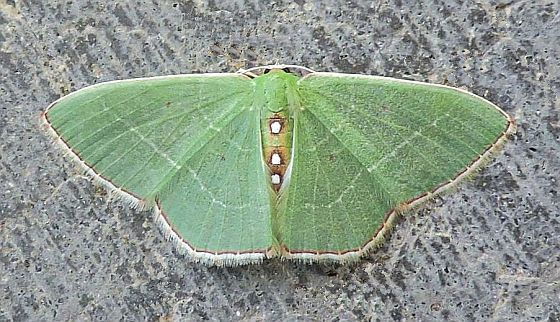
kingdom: Animalia
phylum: Arthropoda
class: Insecta
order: Lepidoptera
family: Geometridae
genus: Nemoria
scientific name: Nemoria zelotes
